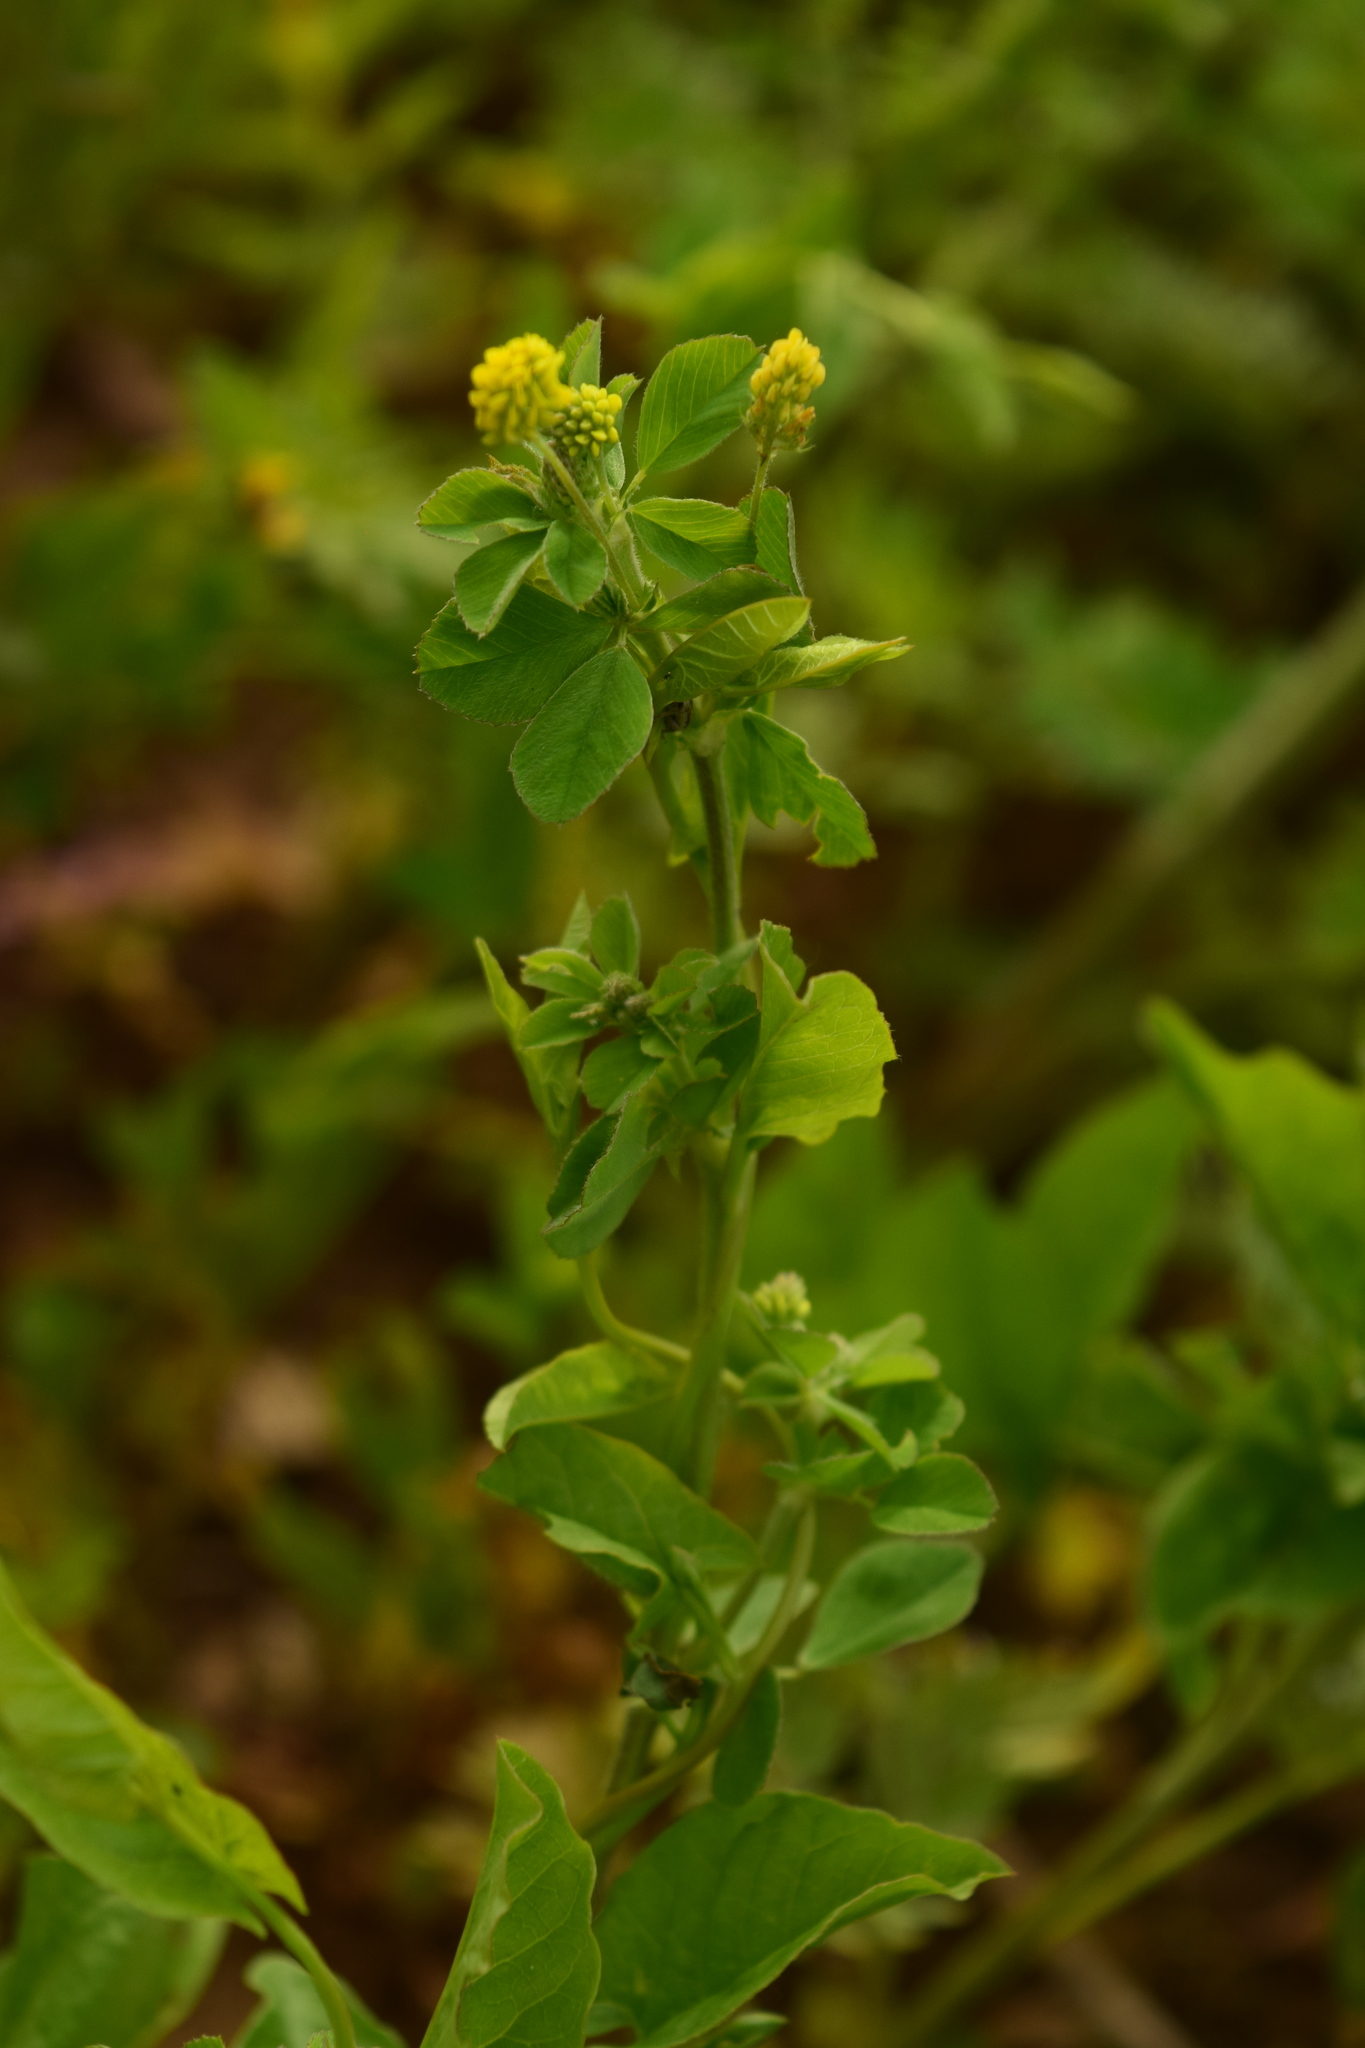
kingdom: Plantae
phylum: Tracheophyta
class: Magnoliopsida
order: Fabales
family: Fabaceae
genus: Medicago
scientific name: Medicago lupulina
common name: Black medick
